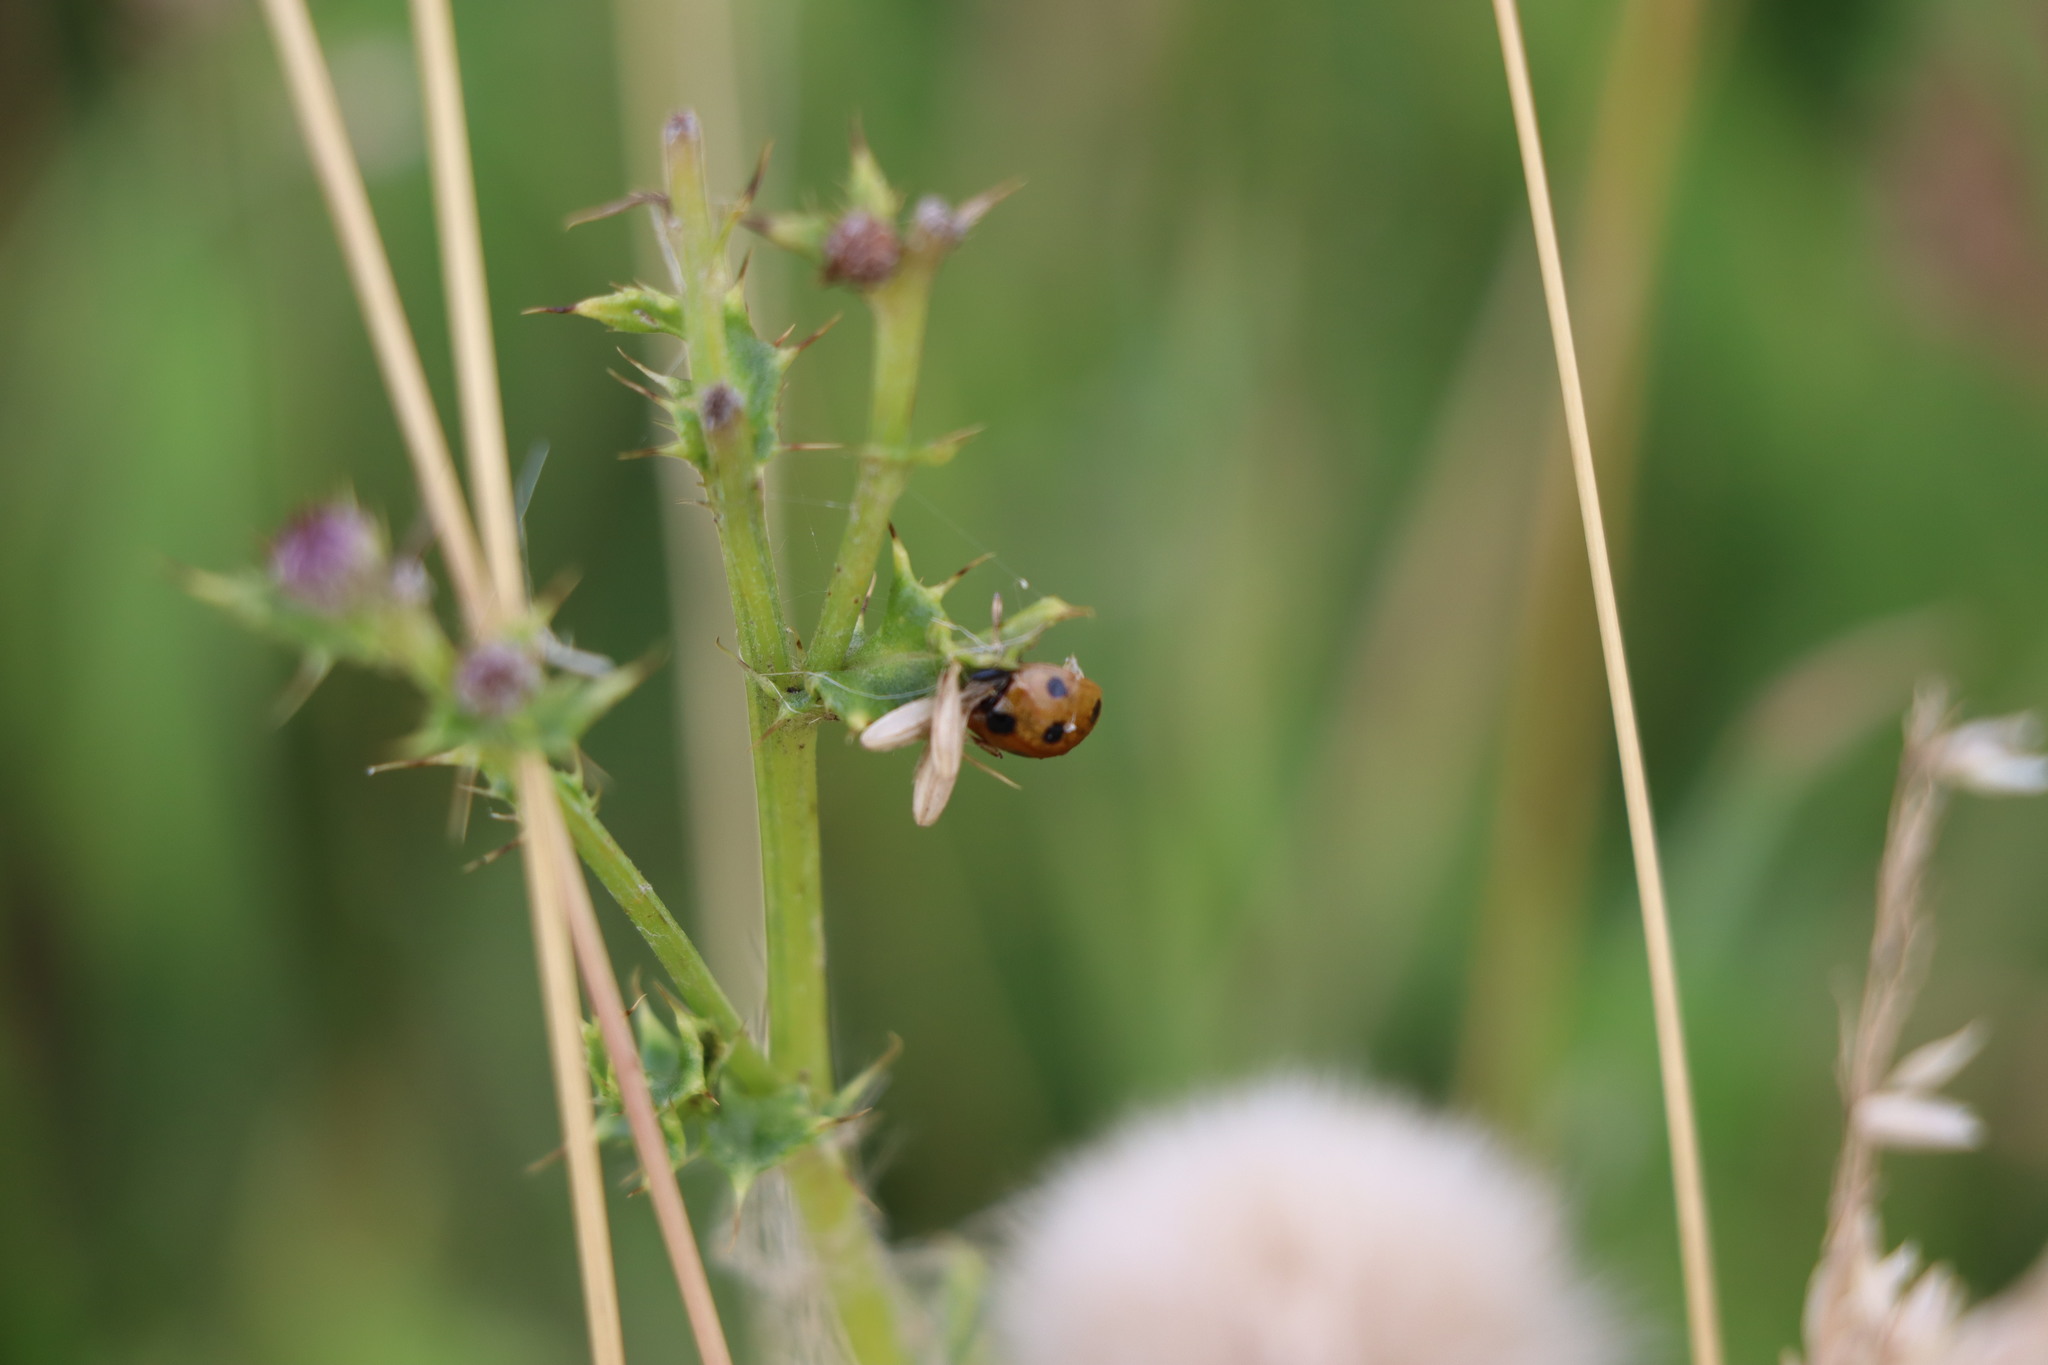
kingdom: Animalia
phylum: Arthropoda
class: Insecta
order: Coleoptera
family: Coccinellidae
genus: Coccinella
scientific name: Coccinella septempunctata
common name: Sevenspotted lady beetle
